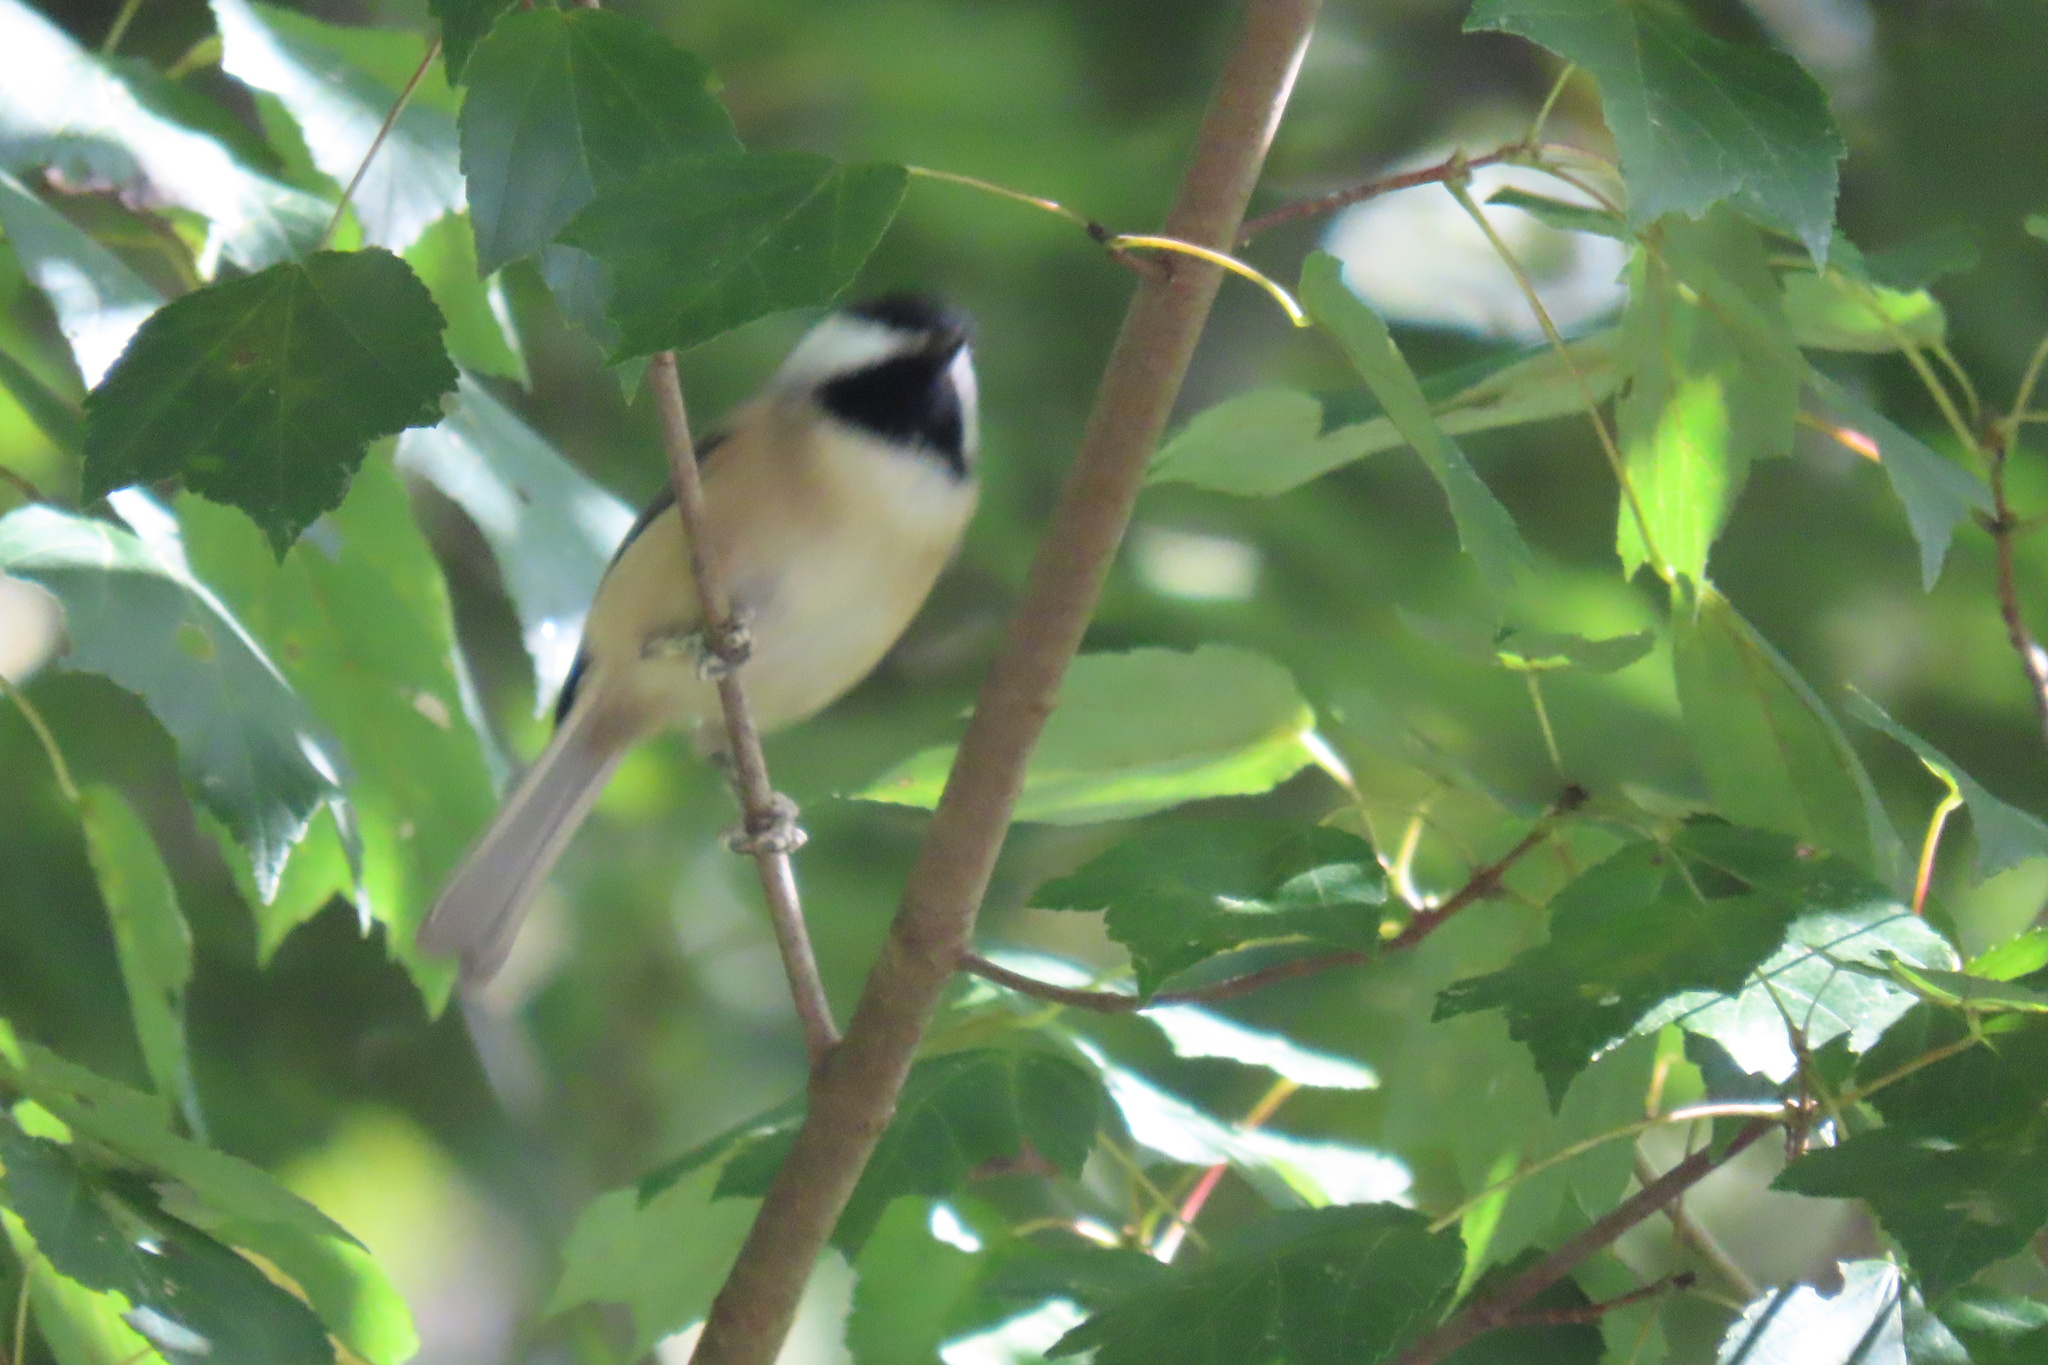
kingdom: Animalia
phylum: Chordata
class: Aves
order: Passeriformes
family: Paridae
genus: Poecile
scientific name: Poecile carolinensis
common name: Carolina chickadee
